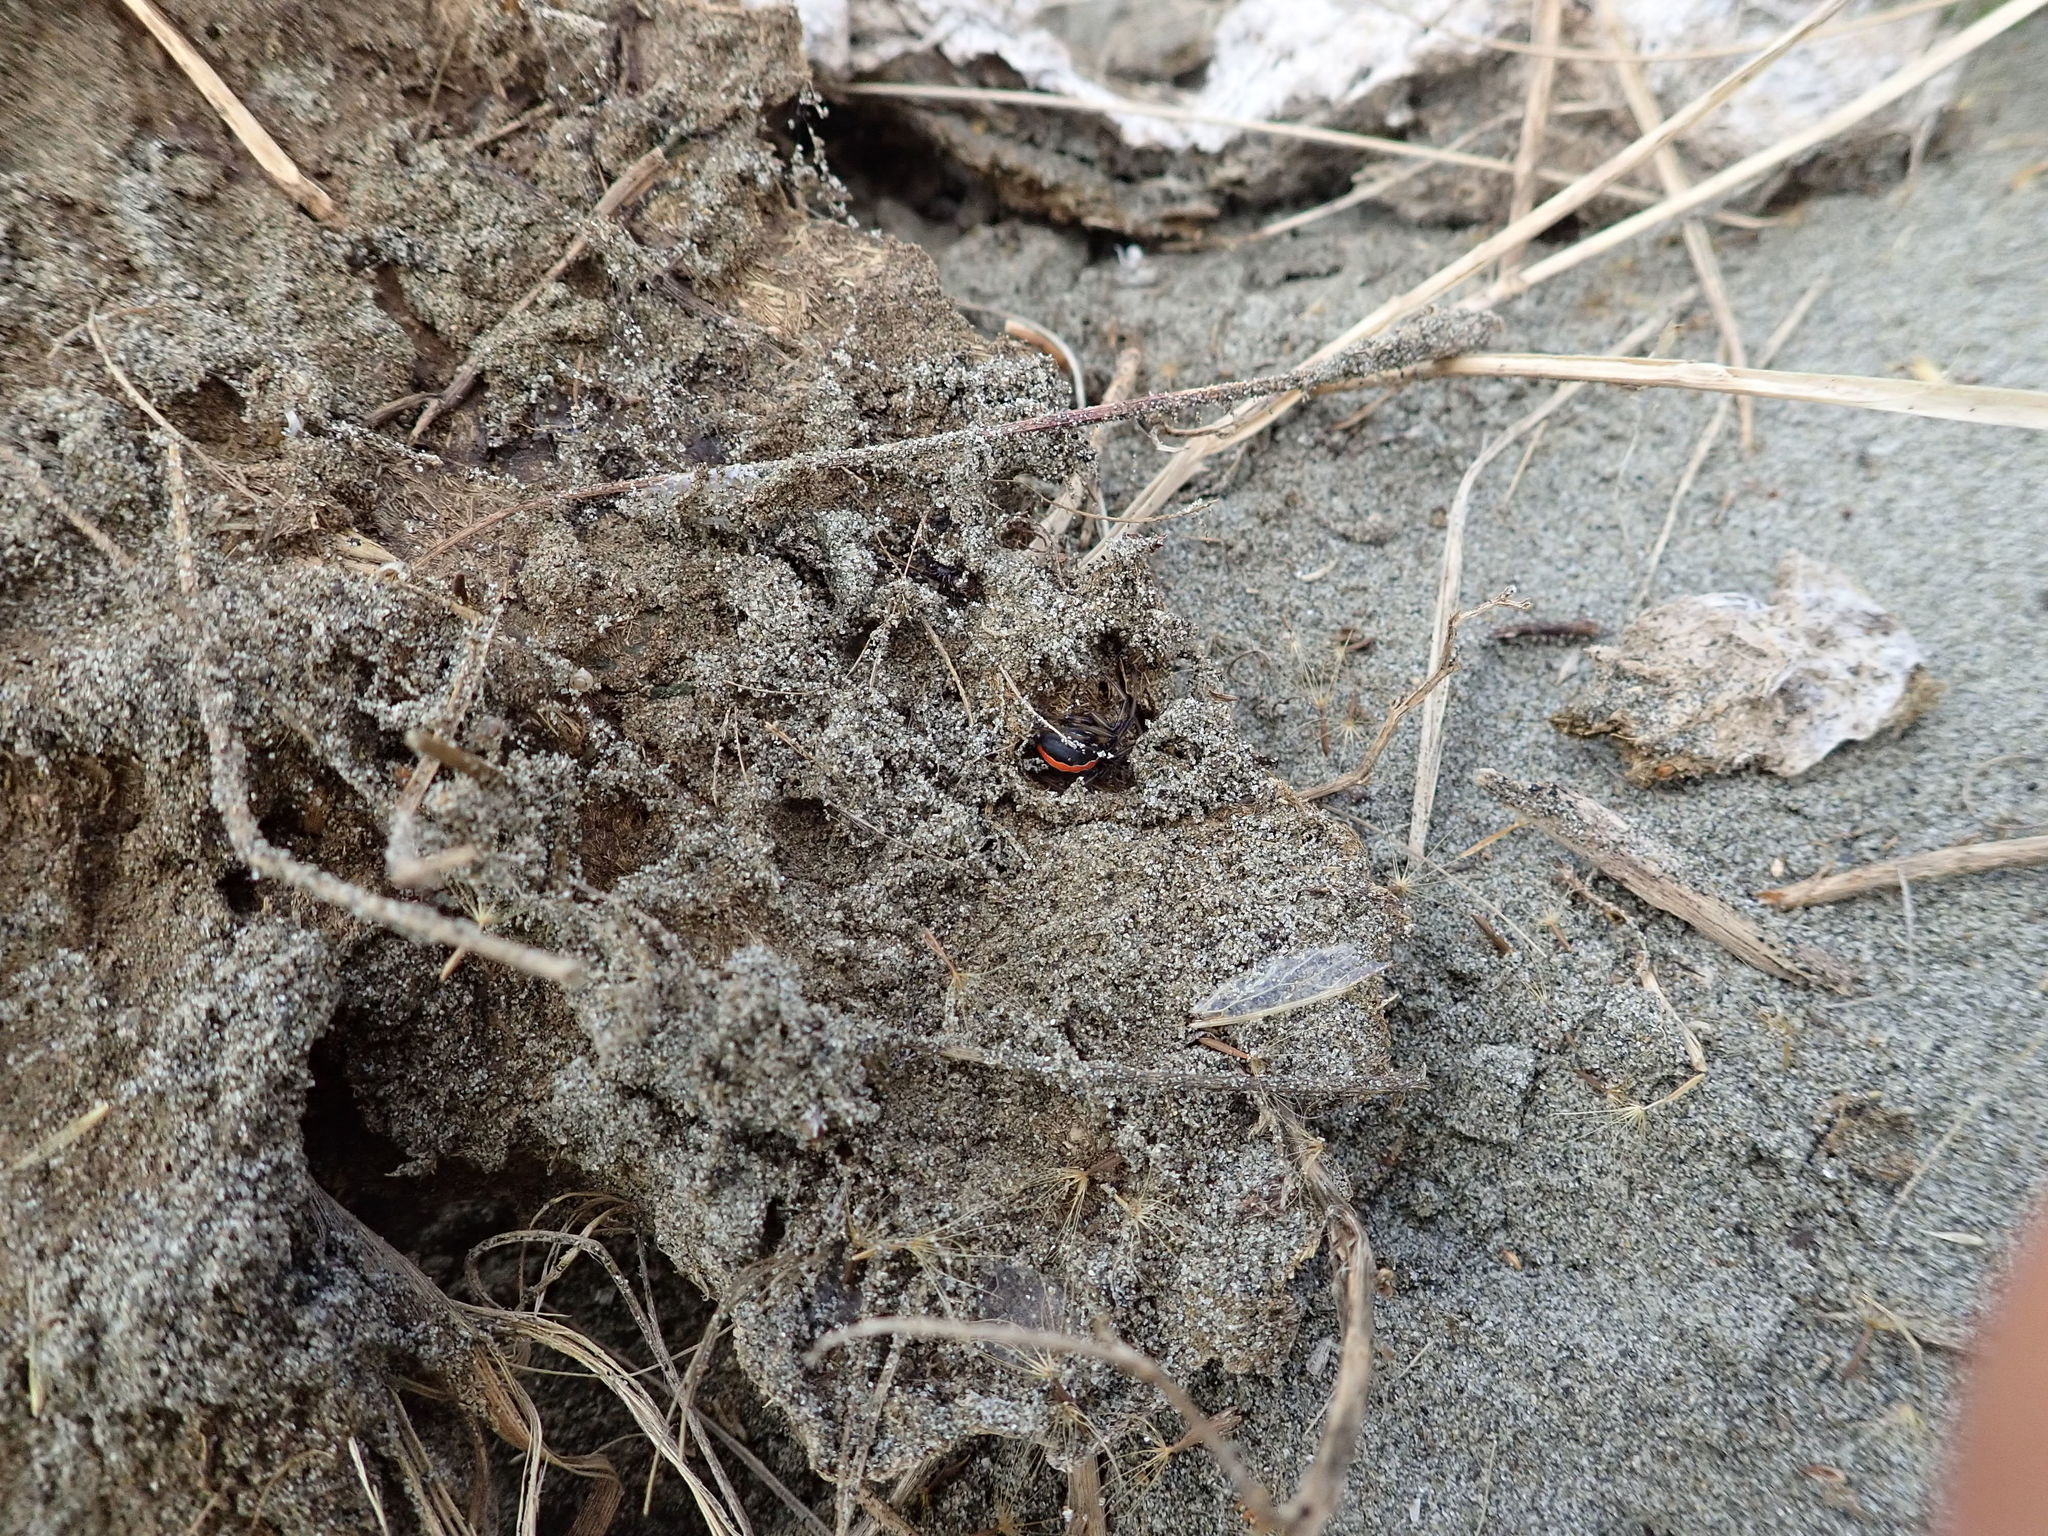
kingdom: Animalia
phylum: Arthropoda
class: Arachnida
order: Araneae
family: Theridiidae
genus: Latrodectus
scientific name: Latrodectus katipo
